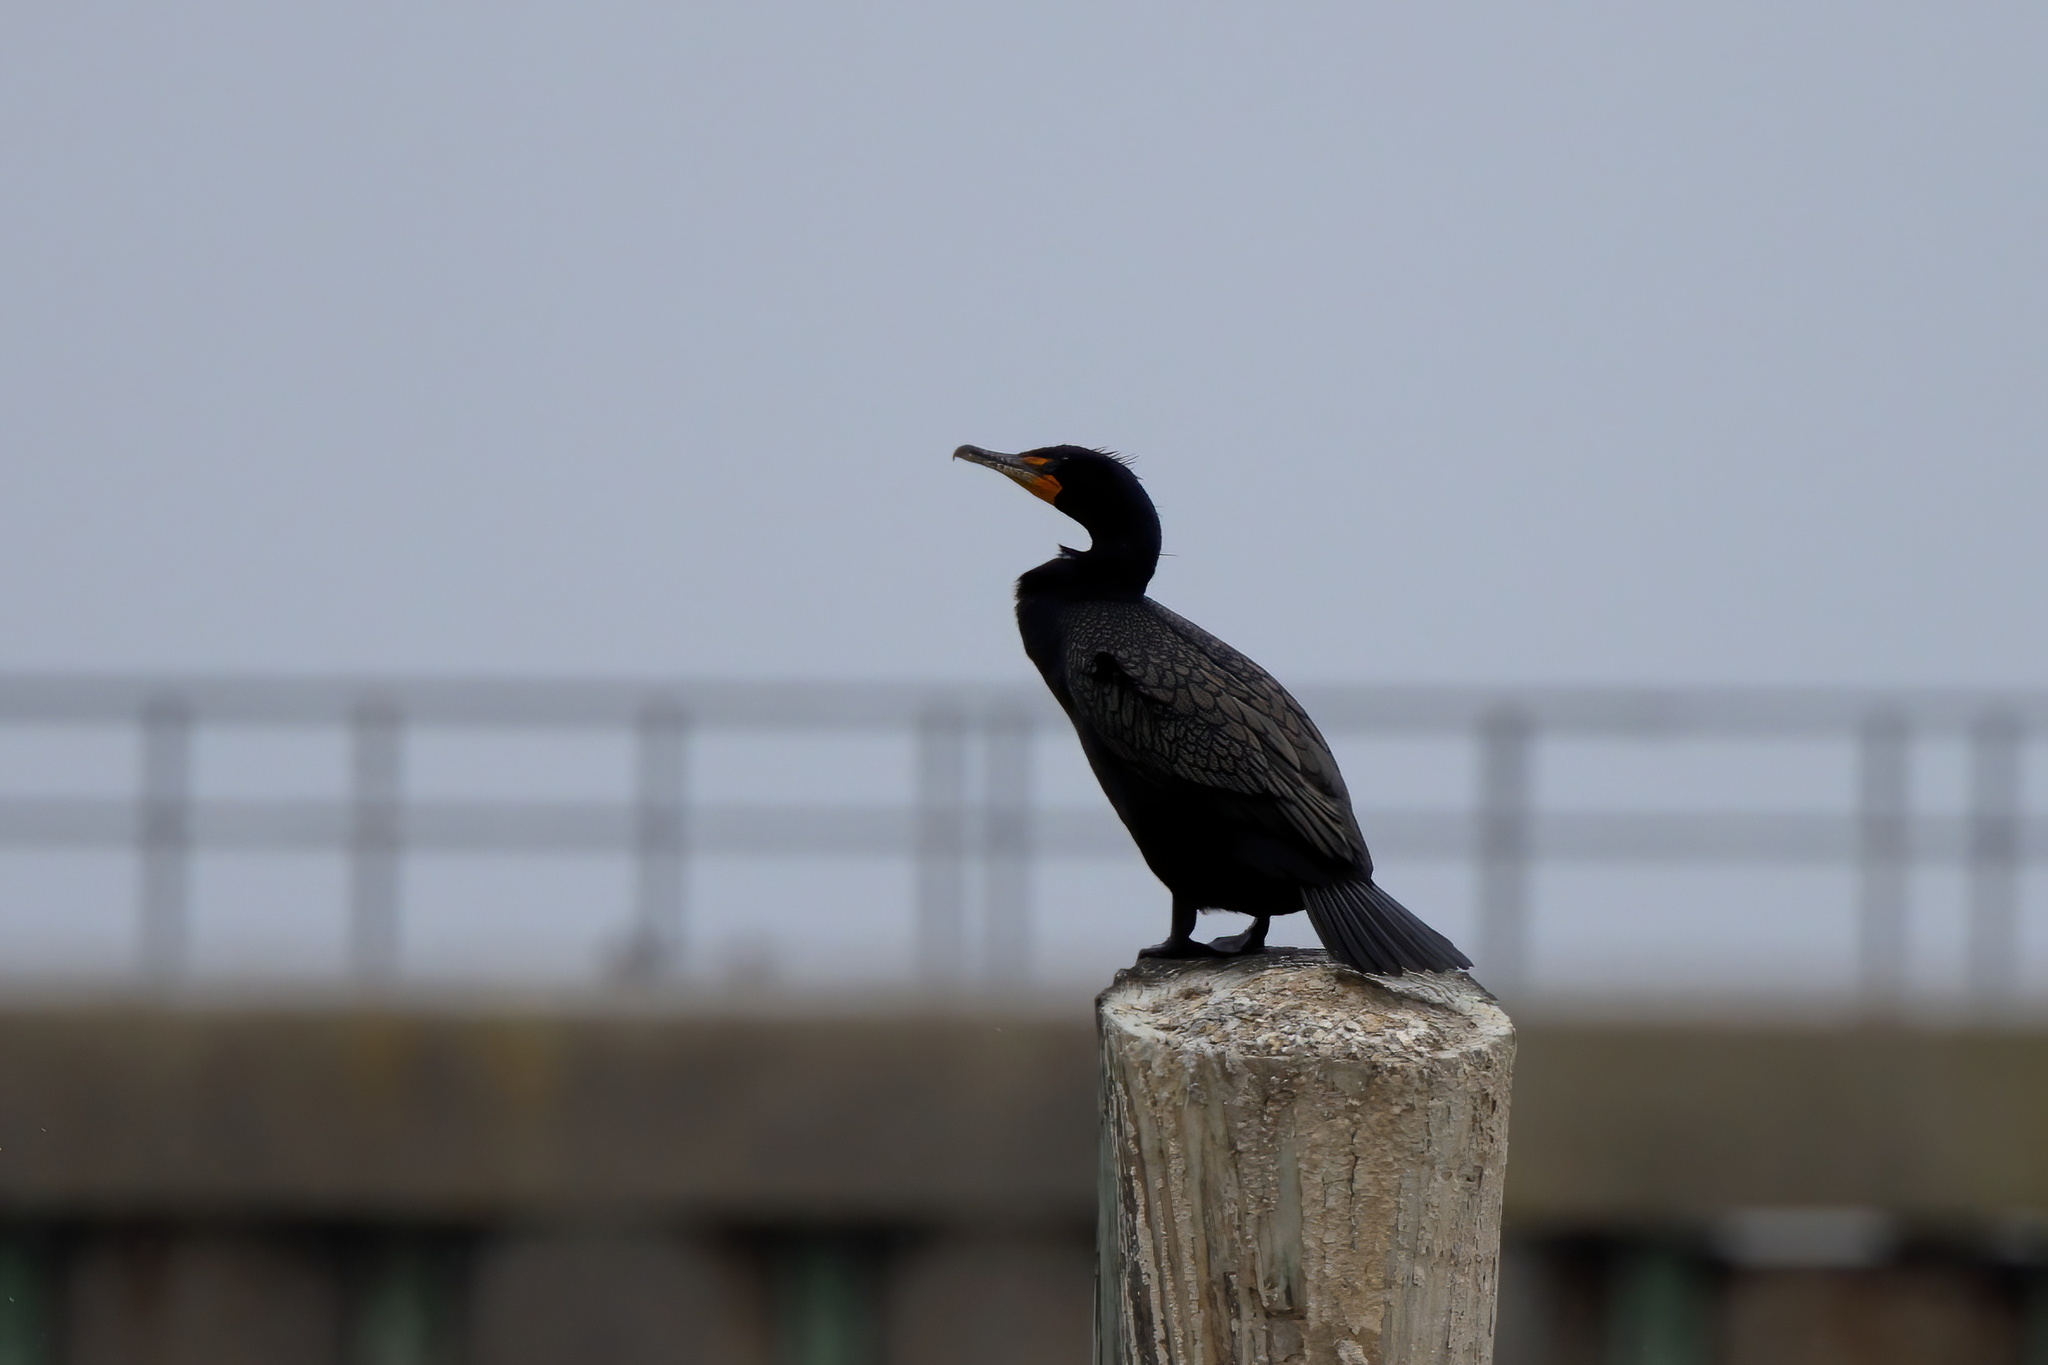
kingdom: Animalia
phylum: Chordata
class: Aves
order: Suliformes
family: Phalacrocoracidae
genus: Phalacrocorax
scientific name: Phalacrocorax auritus
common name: Double-crested cormorant
